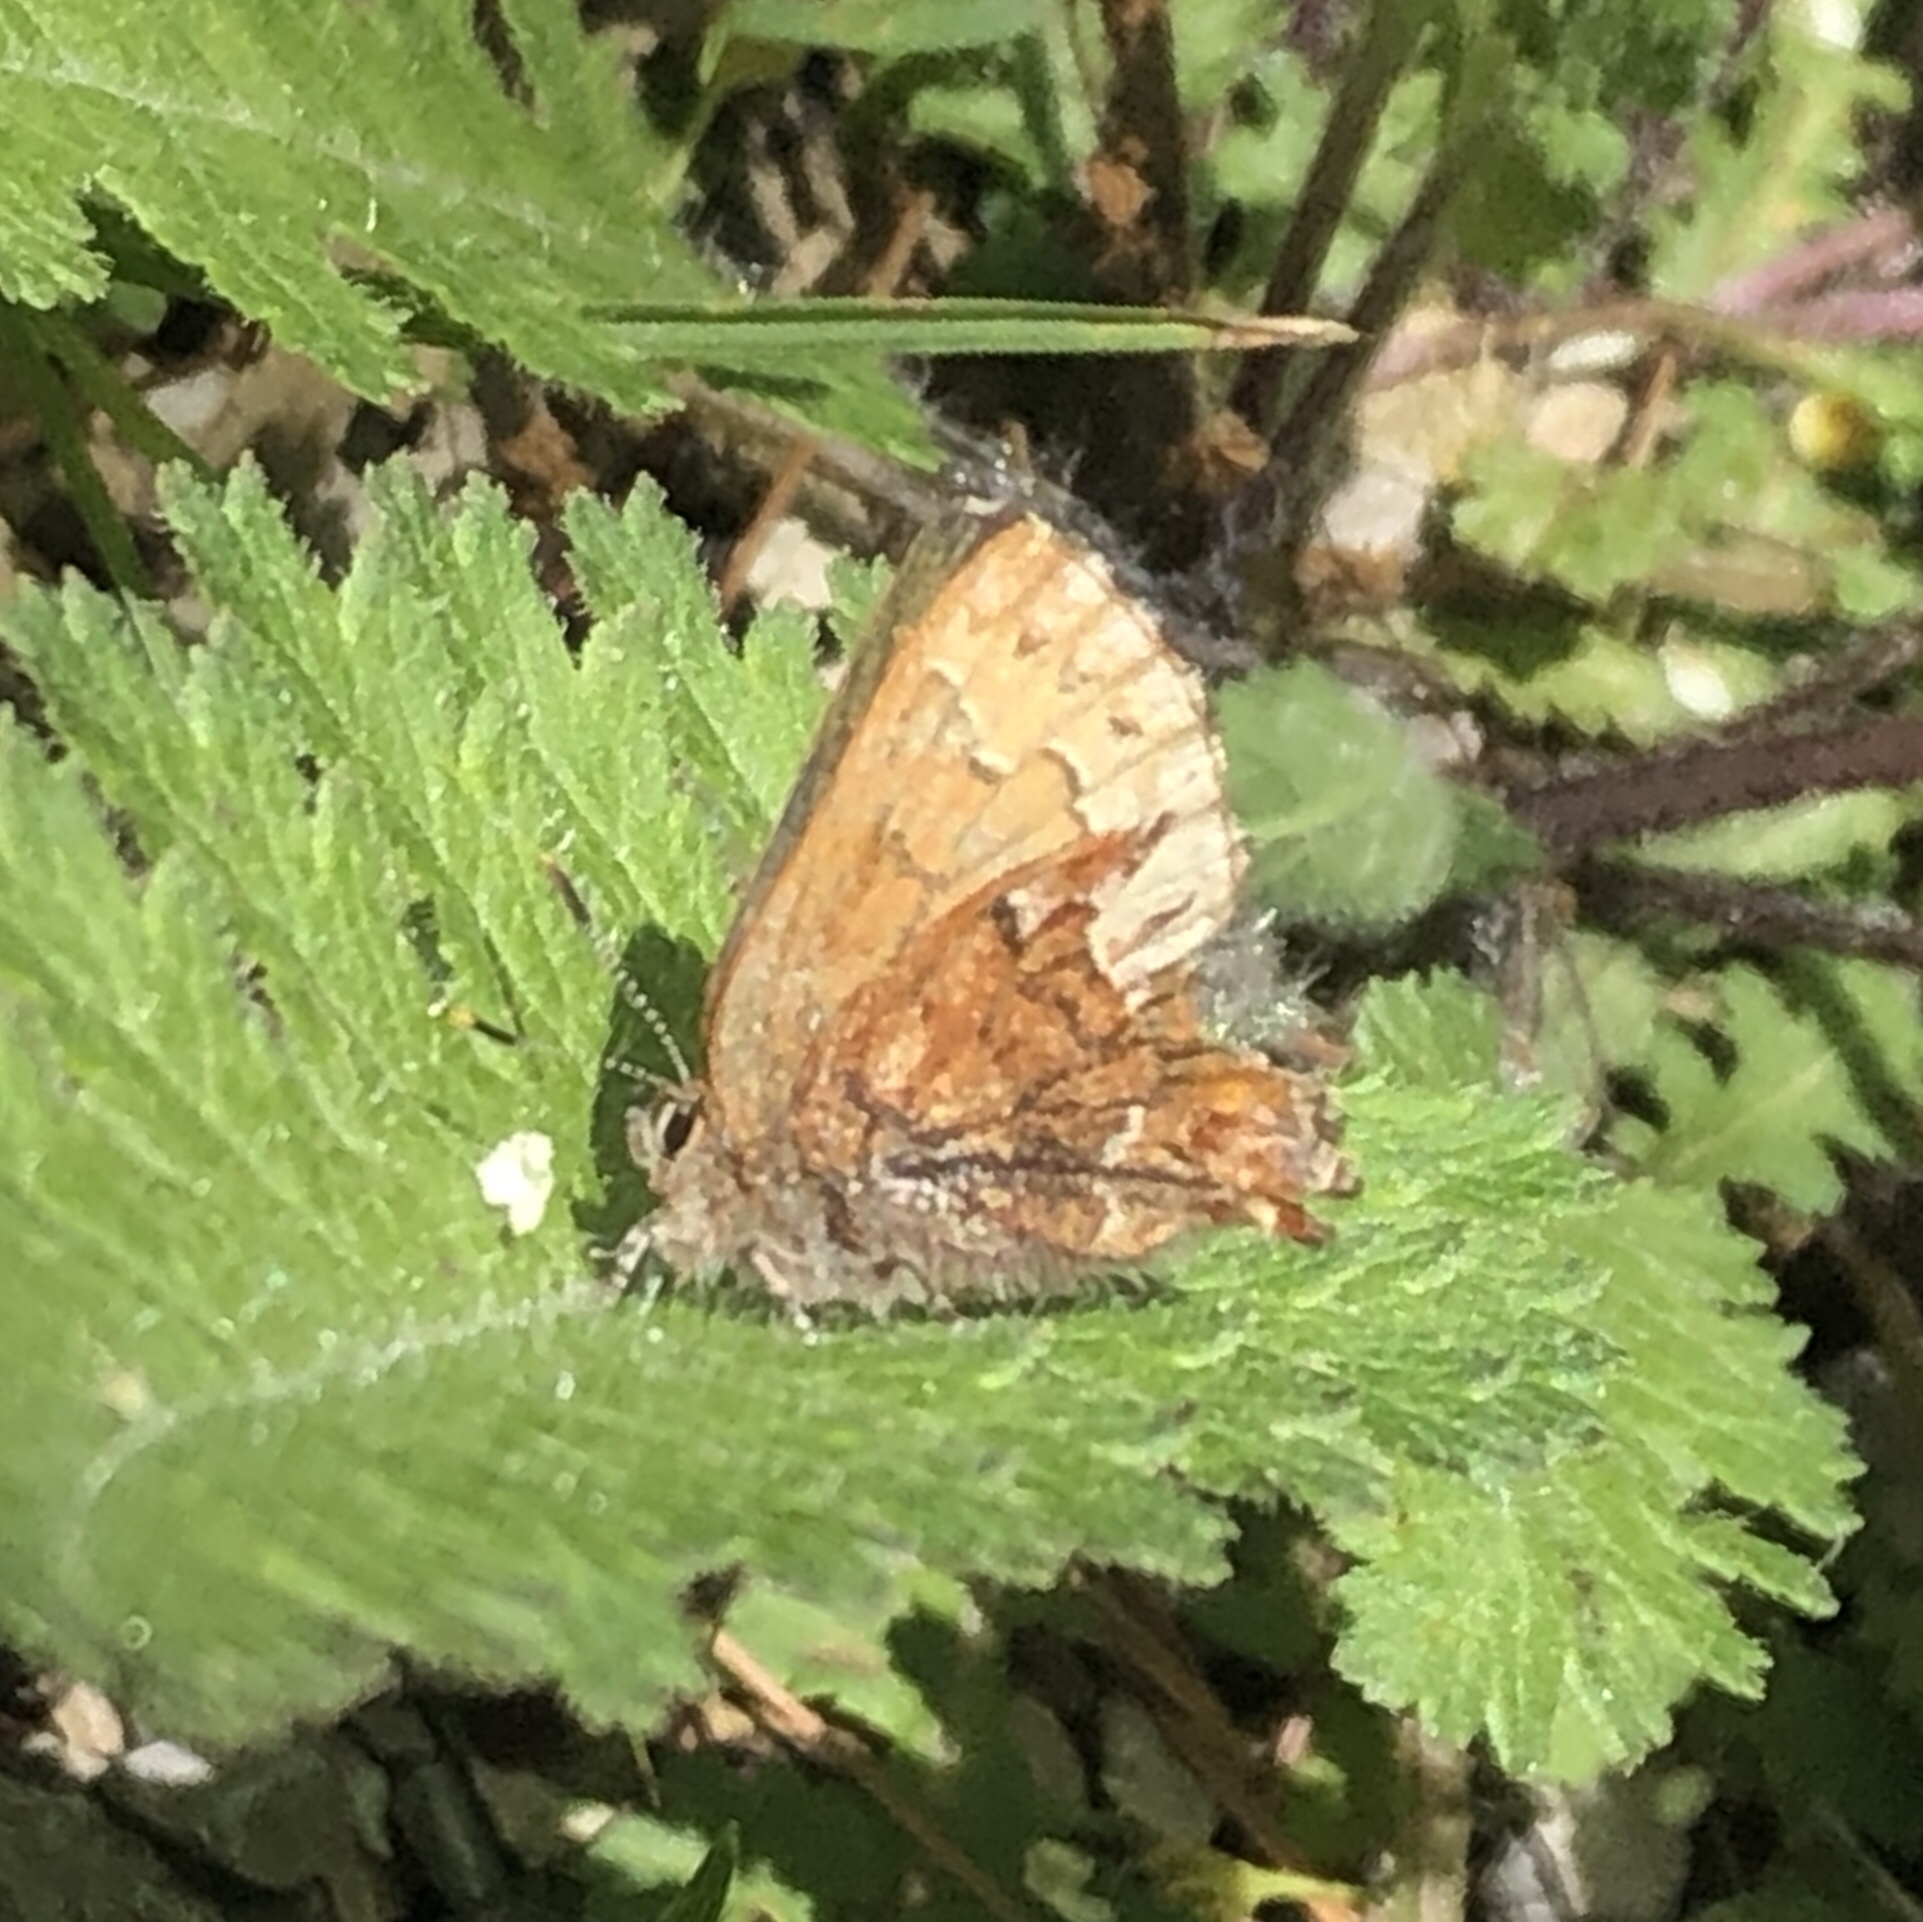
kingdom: Animalia
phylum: Arthropoda
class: Insecta
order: Lepidoptera
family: Lycaenidae
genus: Incisalia
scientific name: Incisalia niphon
